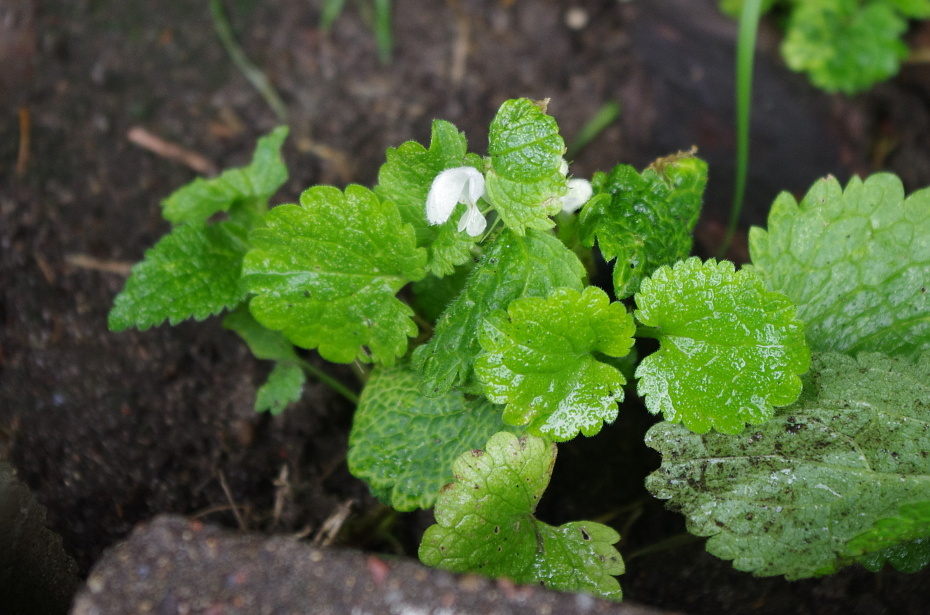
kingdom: Plantae
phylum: Tracheophyta
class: Magnoliopsida
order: Lamiales
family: Lamiaceae
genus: Lamium
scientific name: Lamium album
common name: White dead-nettle
